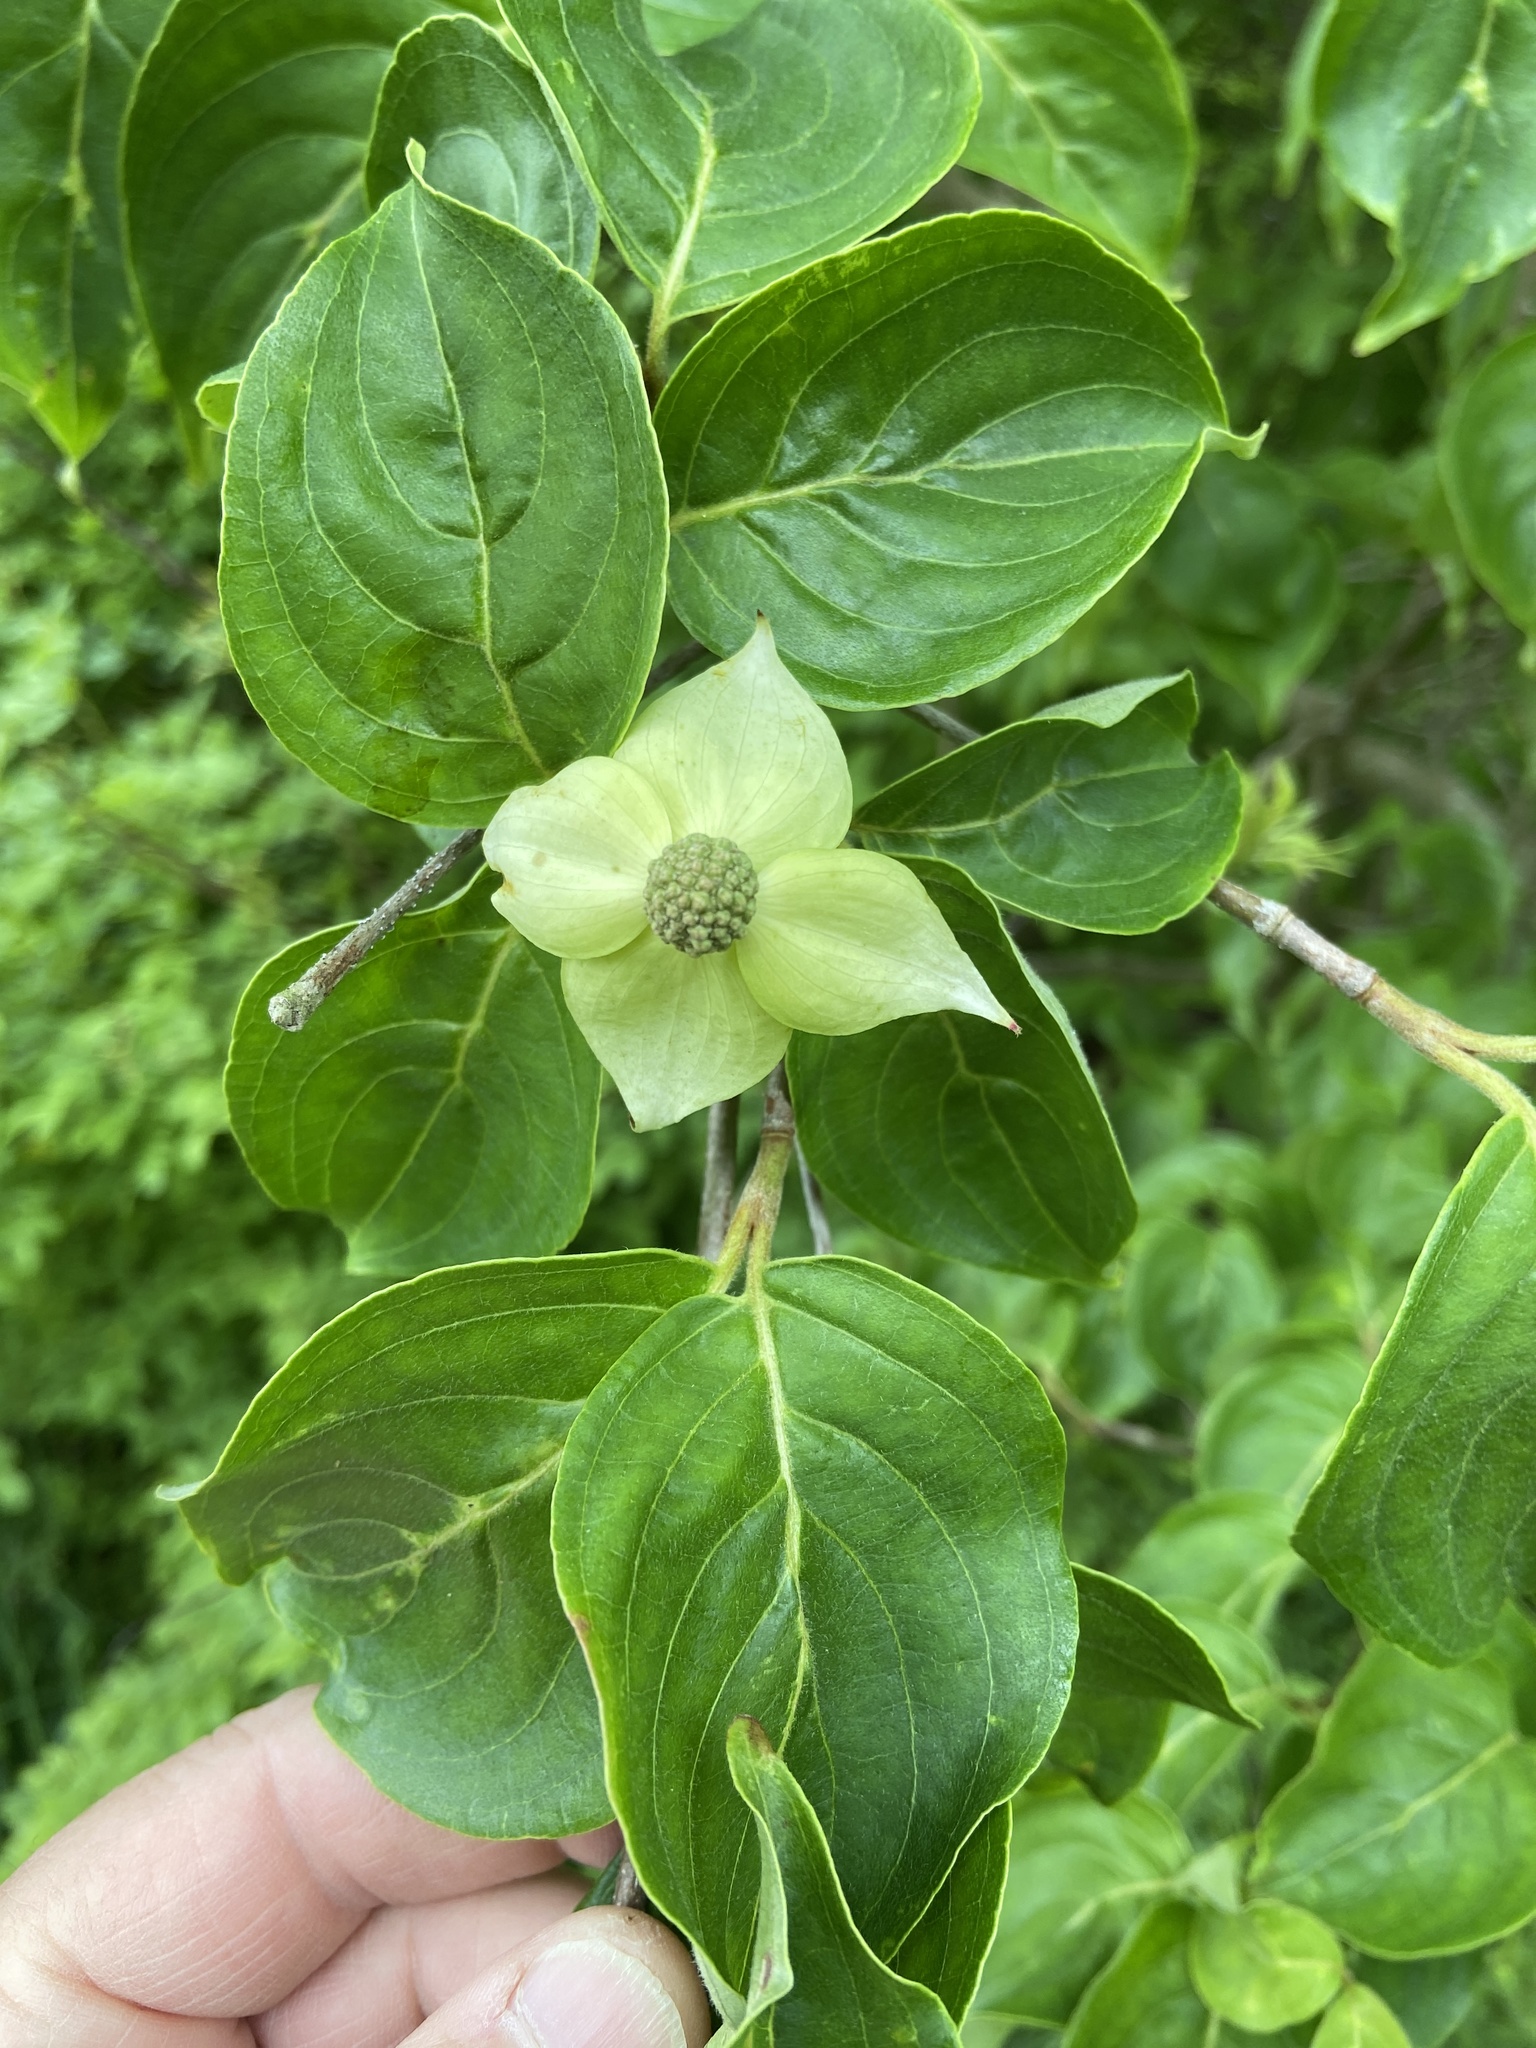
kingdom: Plantae
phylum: Tracheophyta
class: Magnoliopsida
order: Cornales
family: Cornaceae
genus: Cornus
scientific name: Cornus kousa
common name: Japanese dogwood
